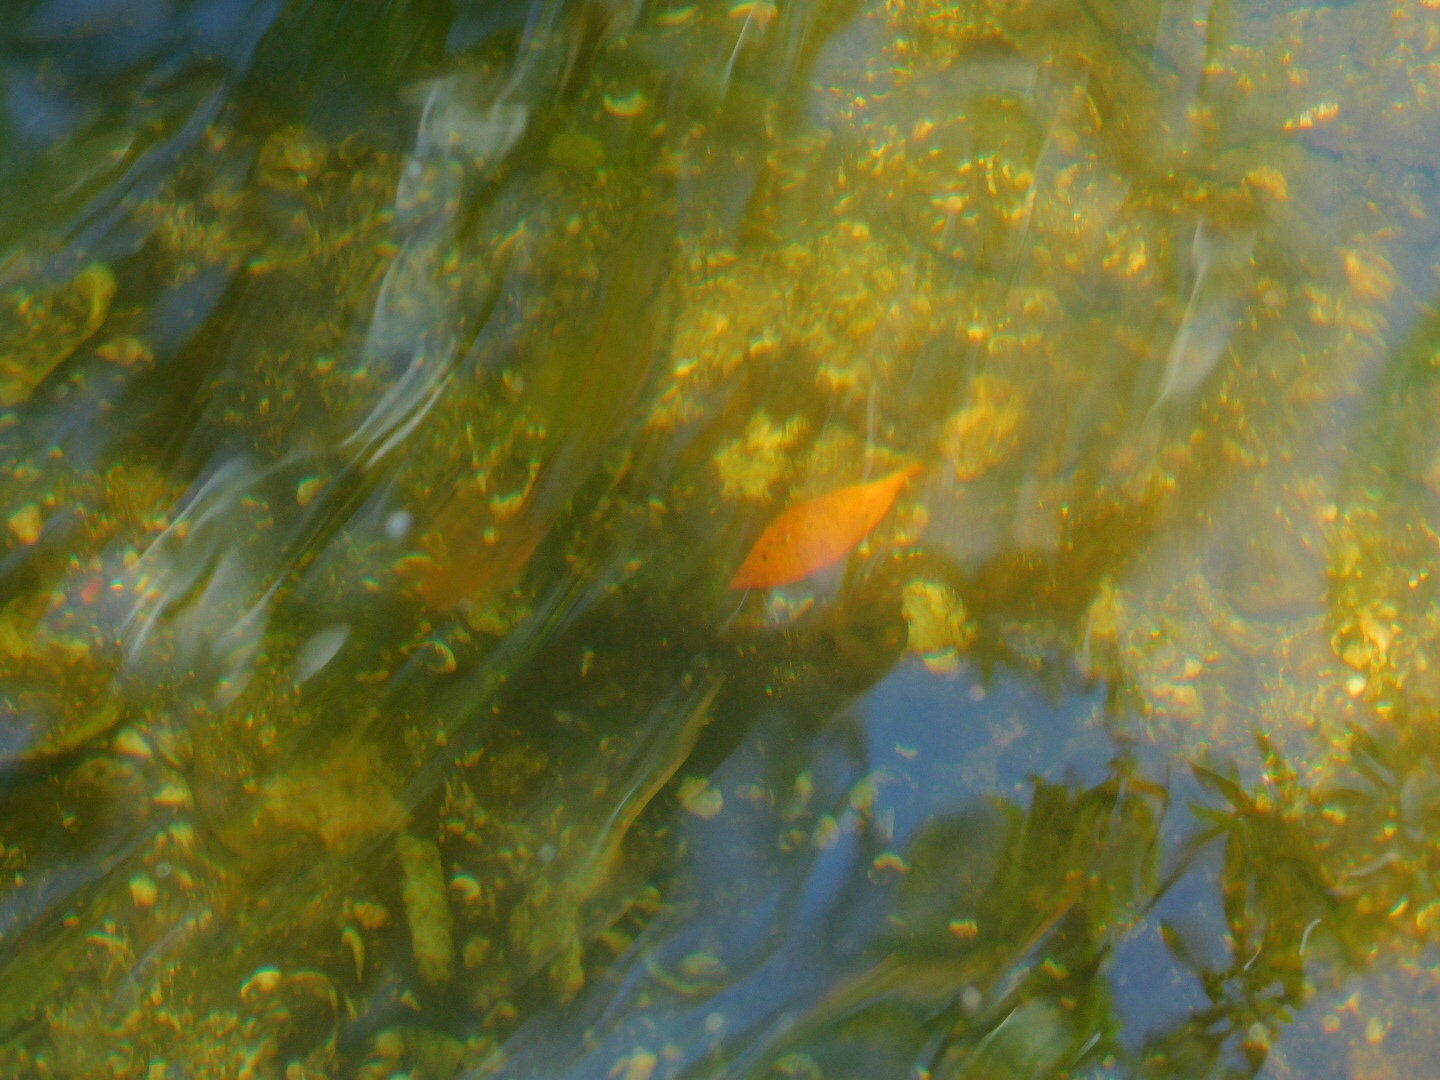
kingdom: Animalia
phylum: Chordata
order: Perciformes
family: Lutjanidae
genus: Lutjanus
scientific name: Lutjanus griseus
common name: Gray snapper
